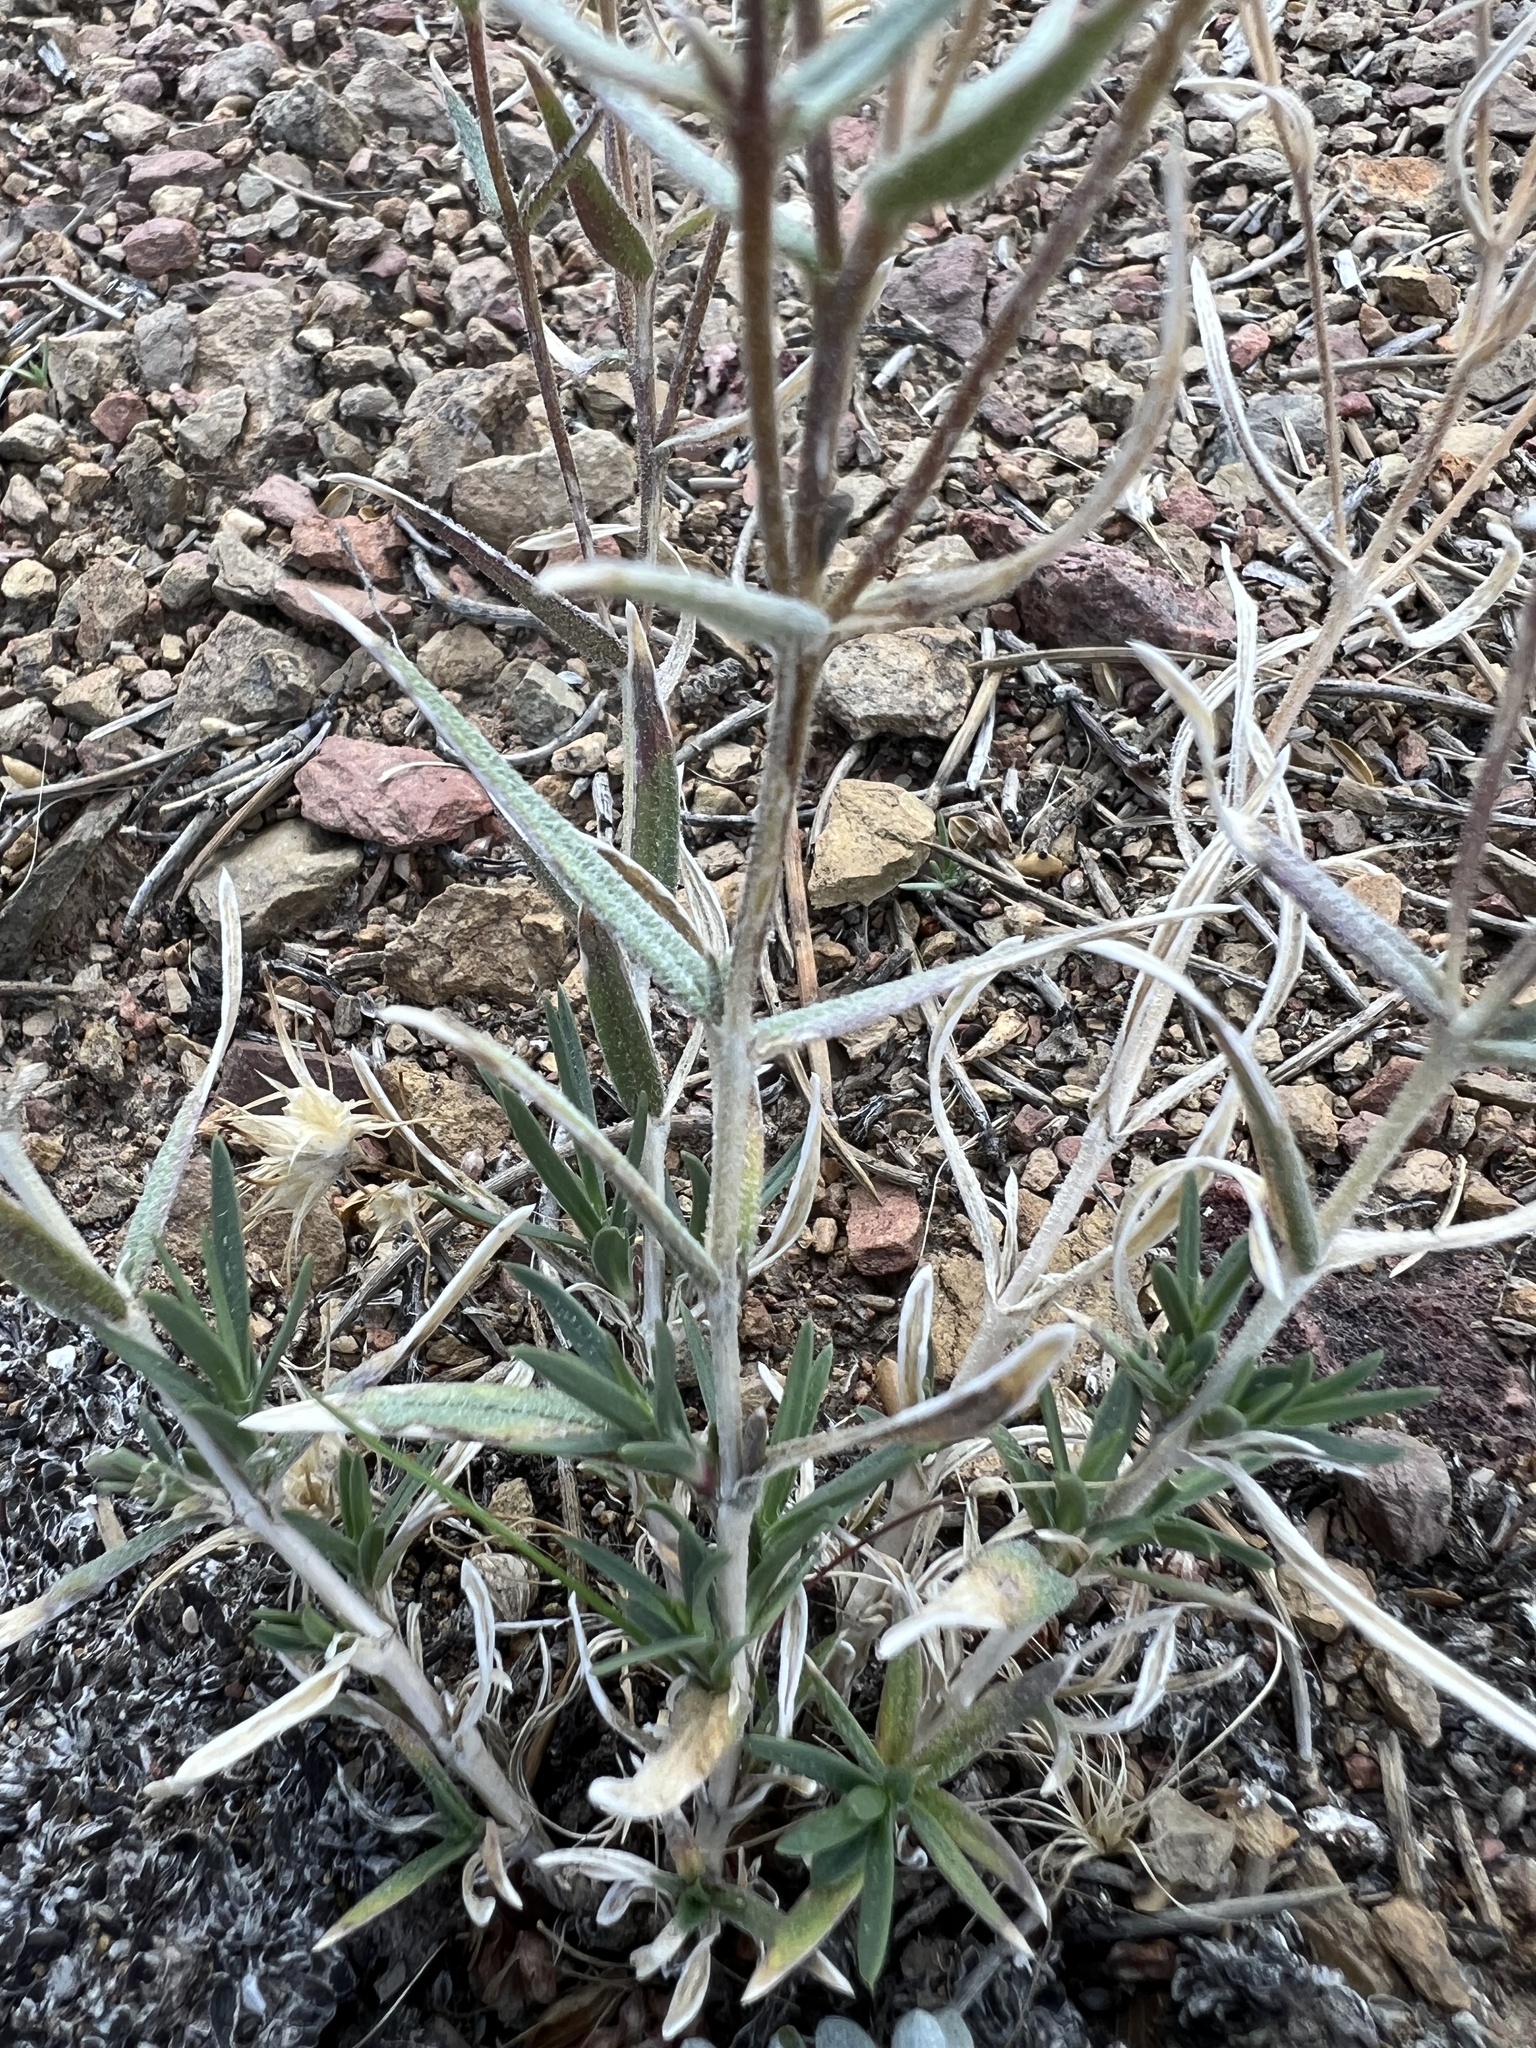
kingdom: Plantae
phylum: Tracheophyta
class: Magnoliopsida
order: Ericales
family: Polemoniaceae
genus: Phlox
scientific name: Phlox longifolia
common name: Longleaf phlox
